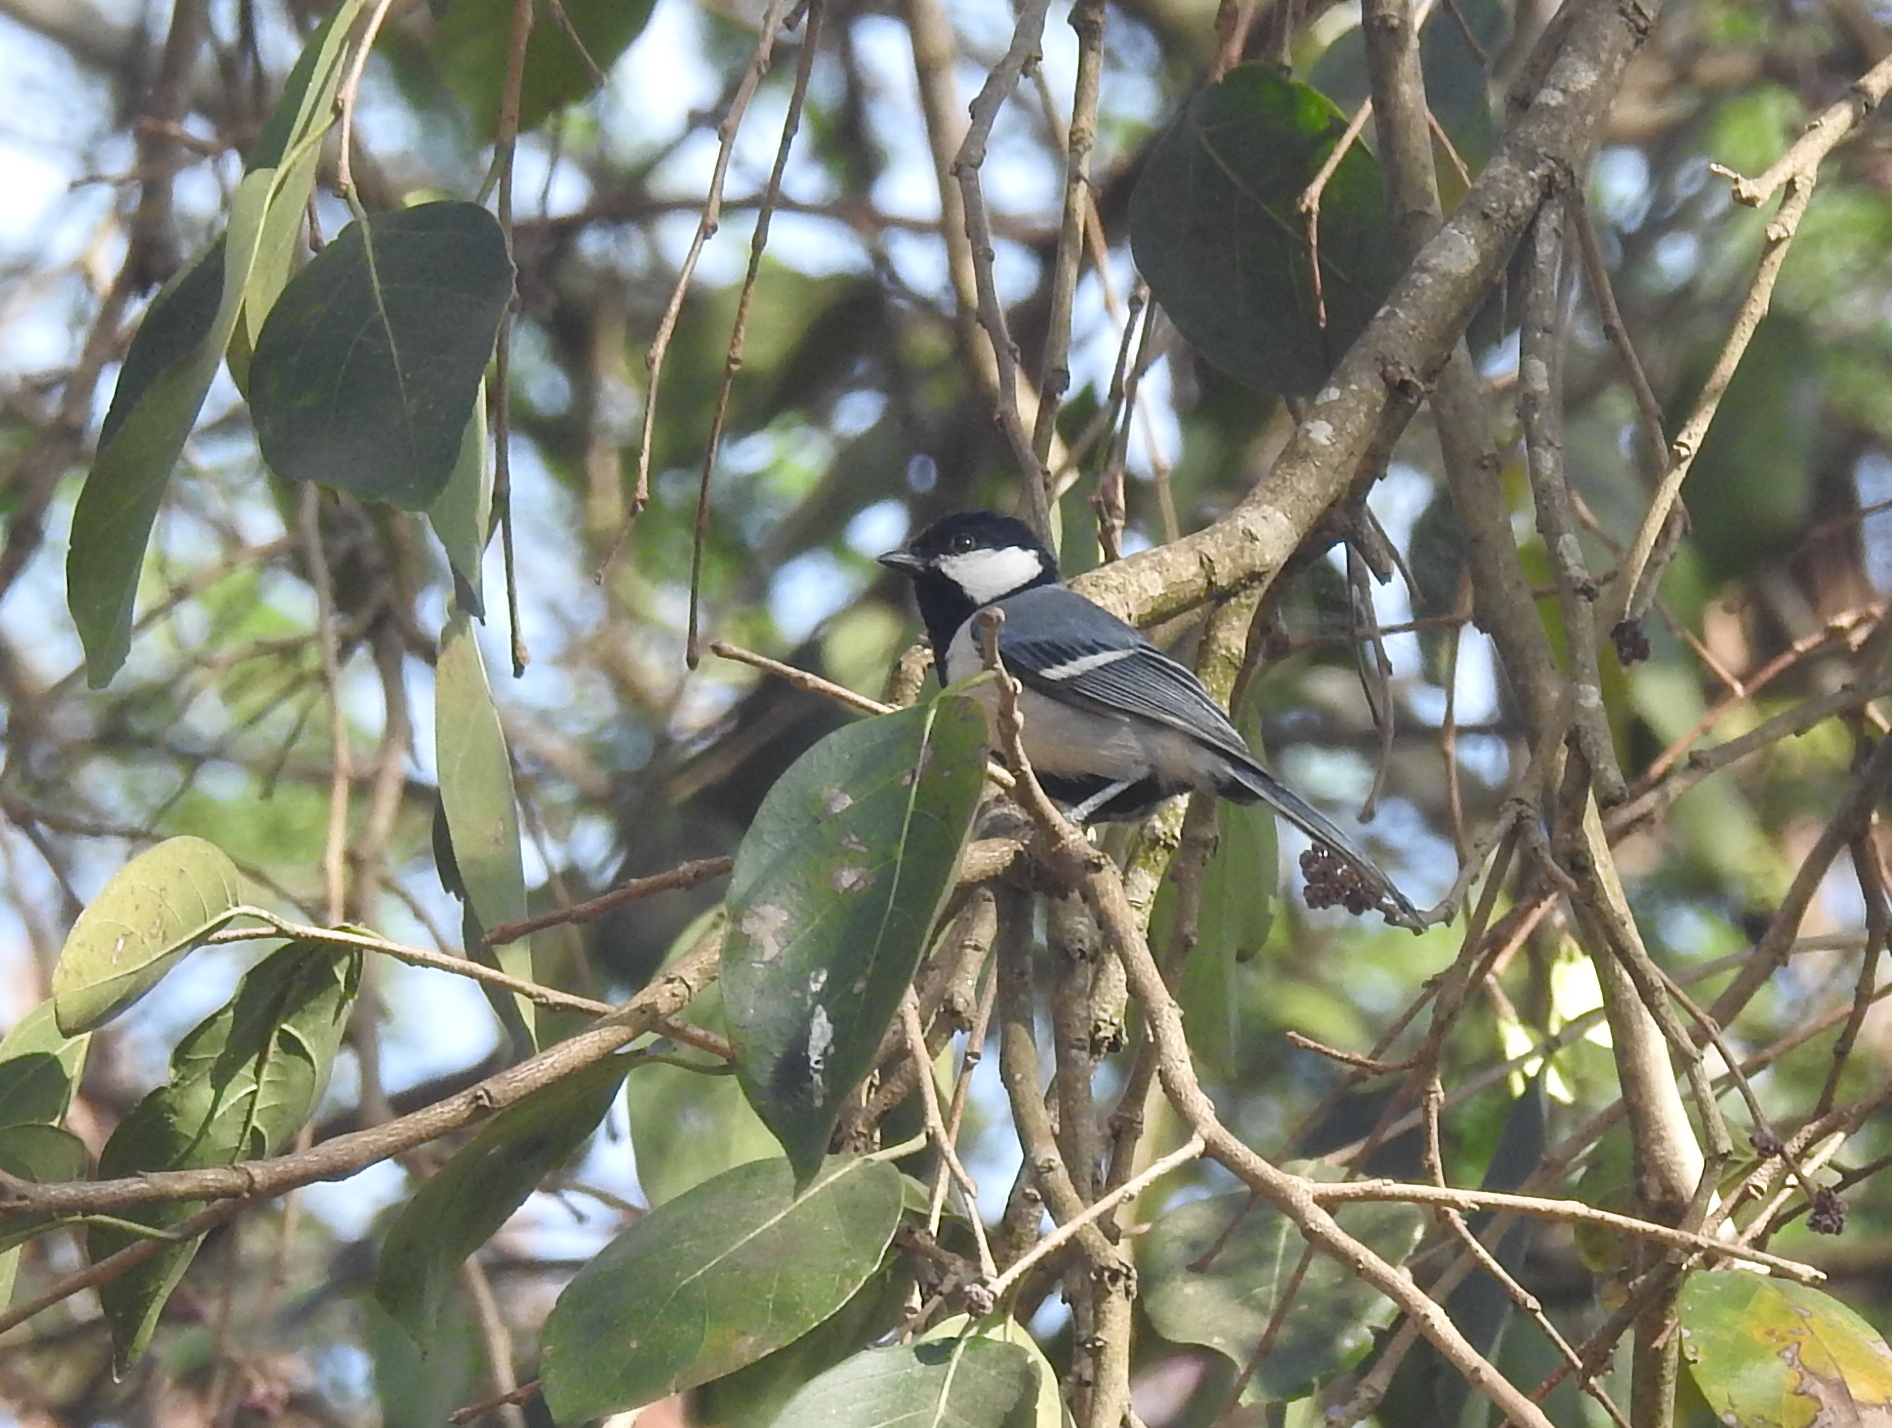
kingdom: Animalia
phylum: Chordata
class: Aves
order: Passeriformes
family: Paridae
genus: Parus
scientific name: Parus cinereus
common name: Cinereous tit
